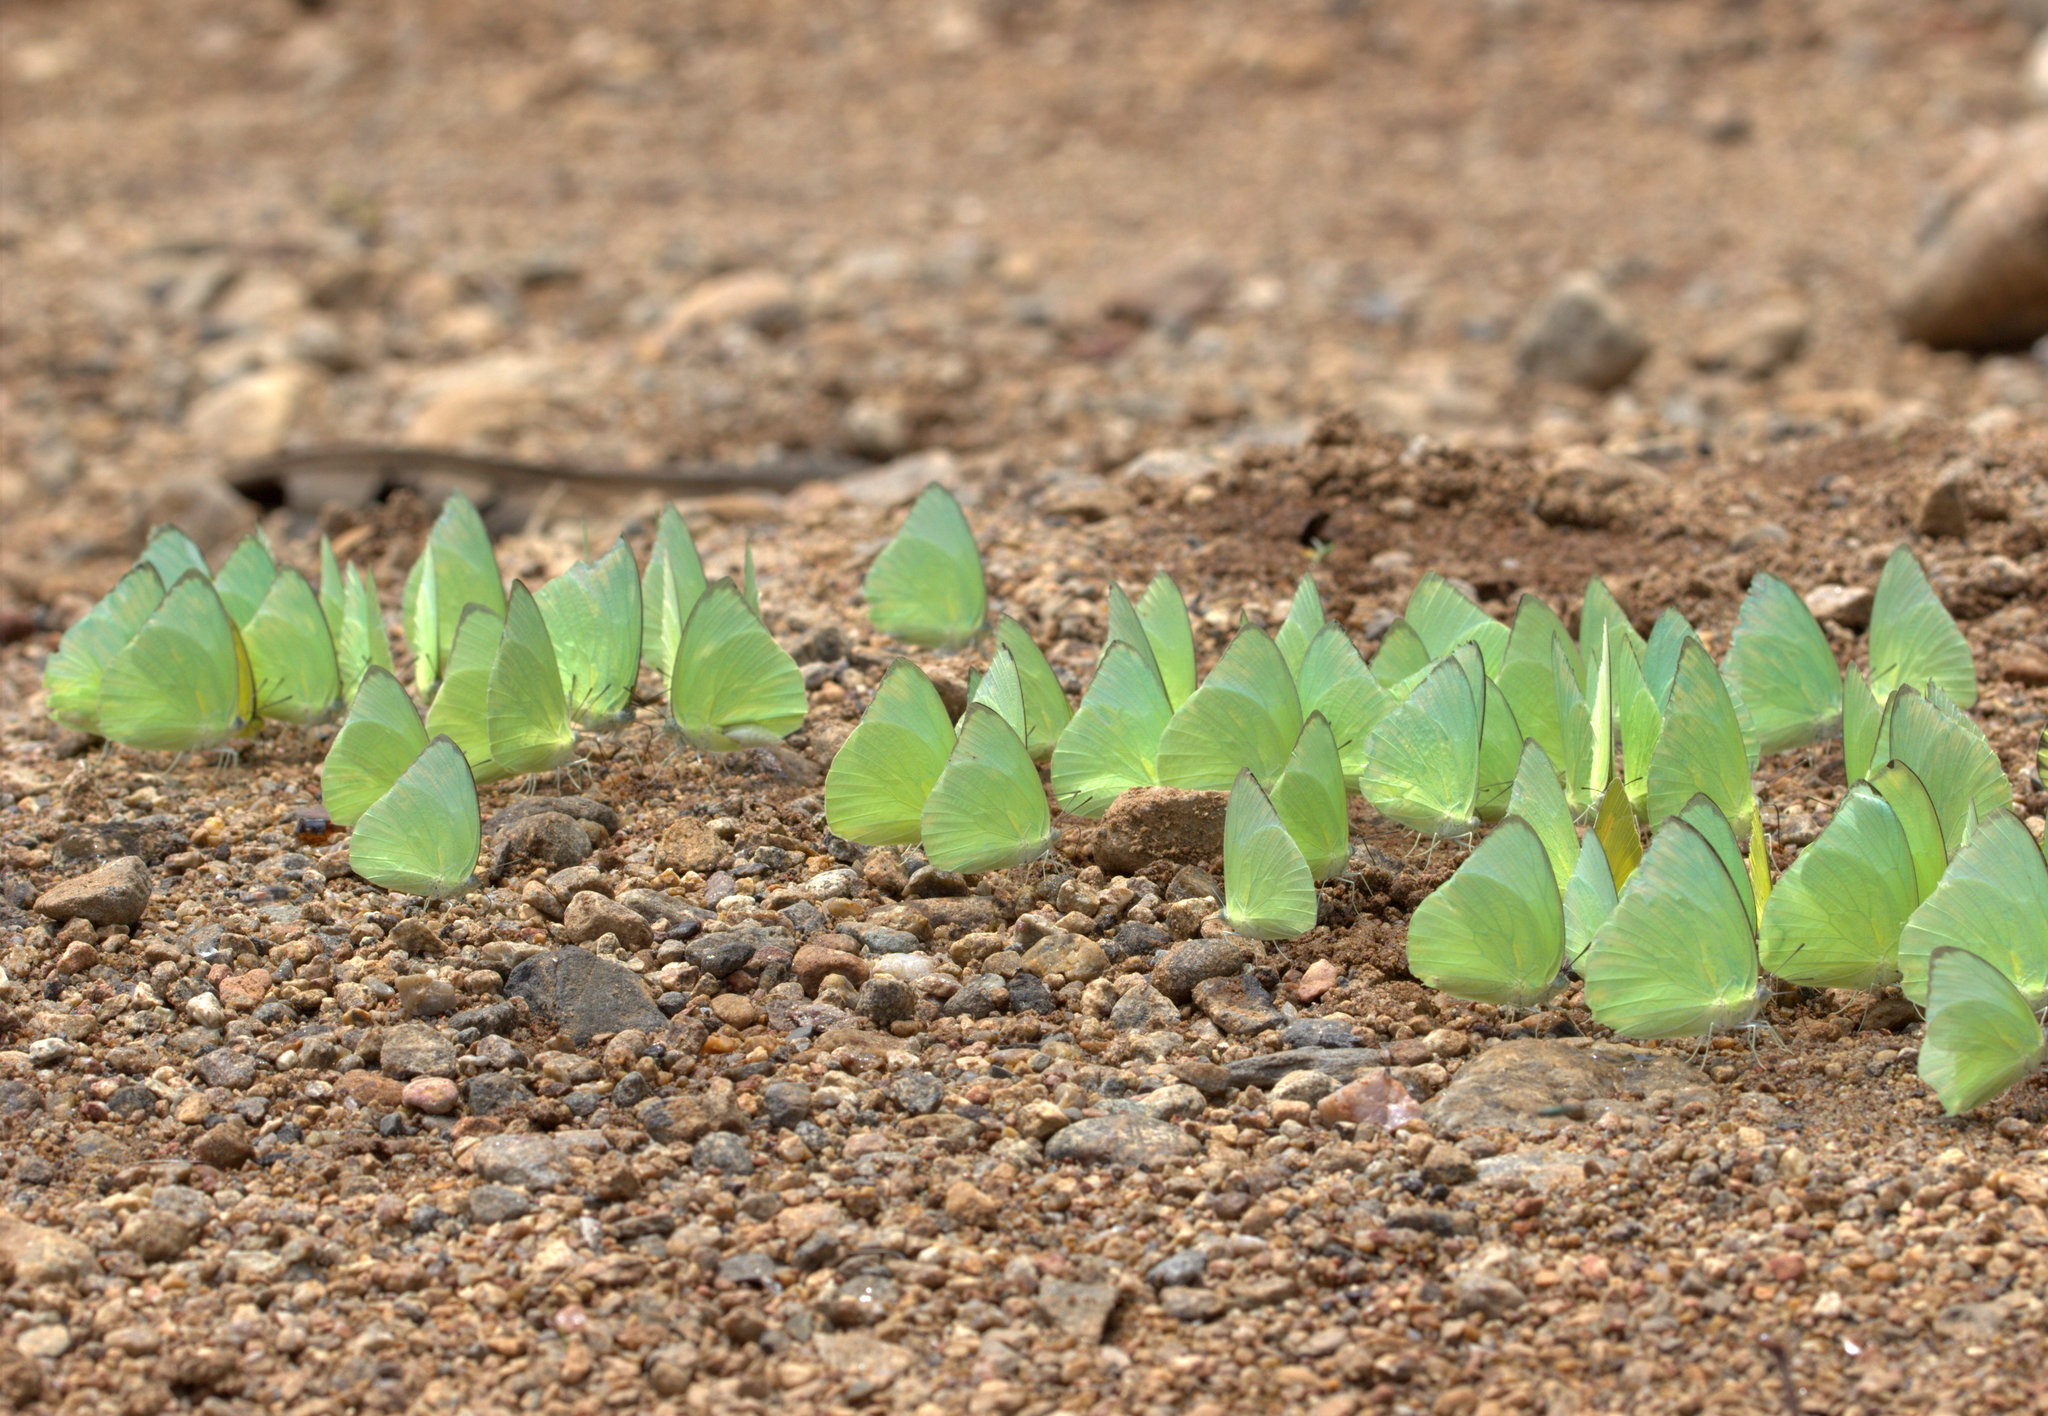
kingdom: Animalia
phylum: Arthropoda
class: Insecta
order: Lepidoptera
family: Pieridae
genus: Catopsilia
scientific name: Catopsilia pomona
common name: Common emigrant
